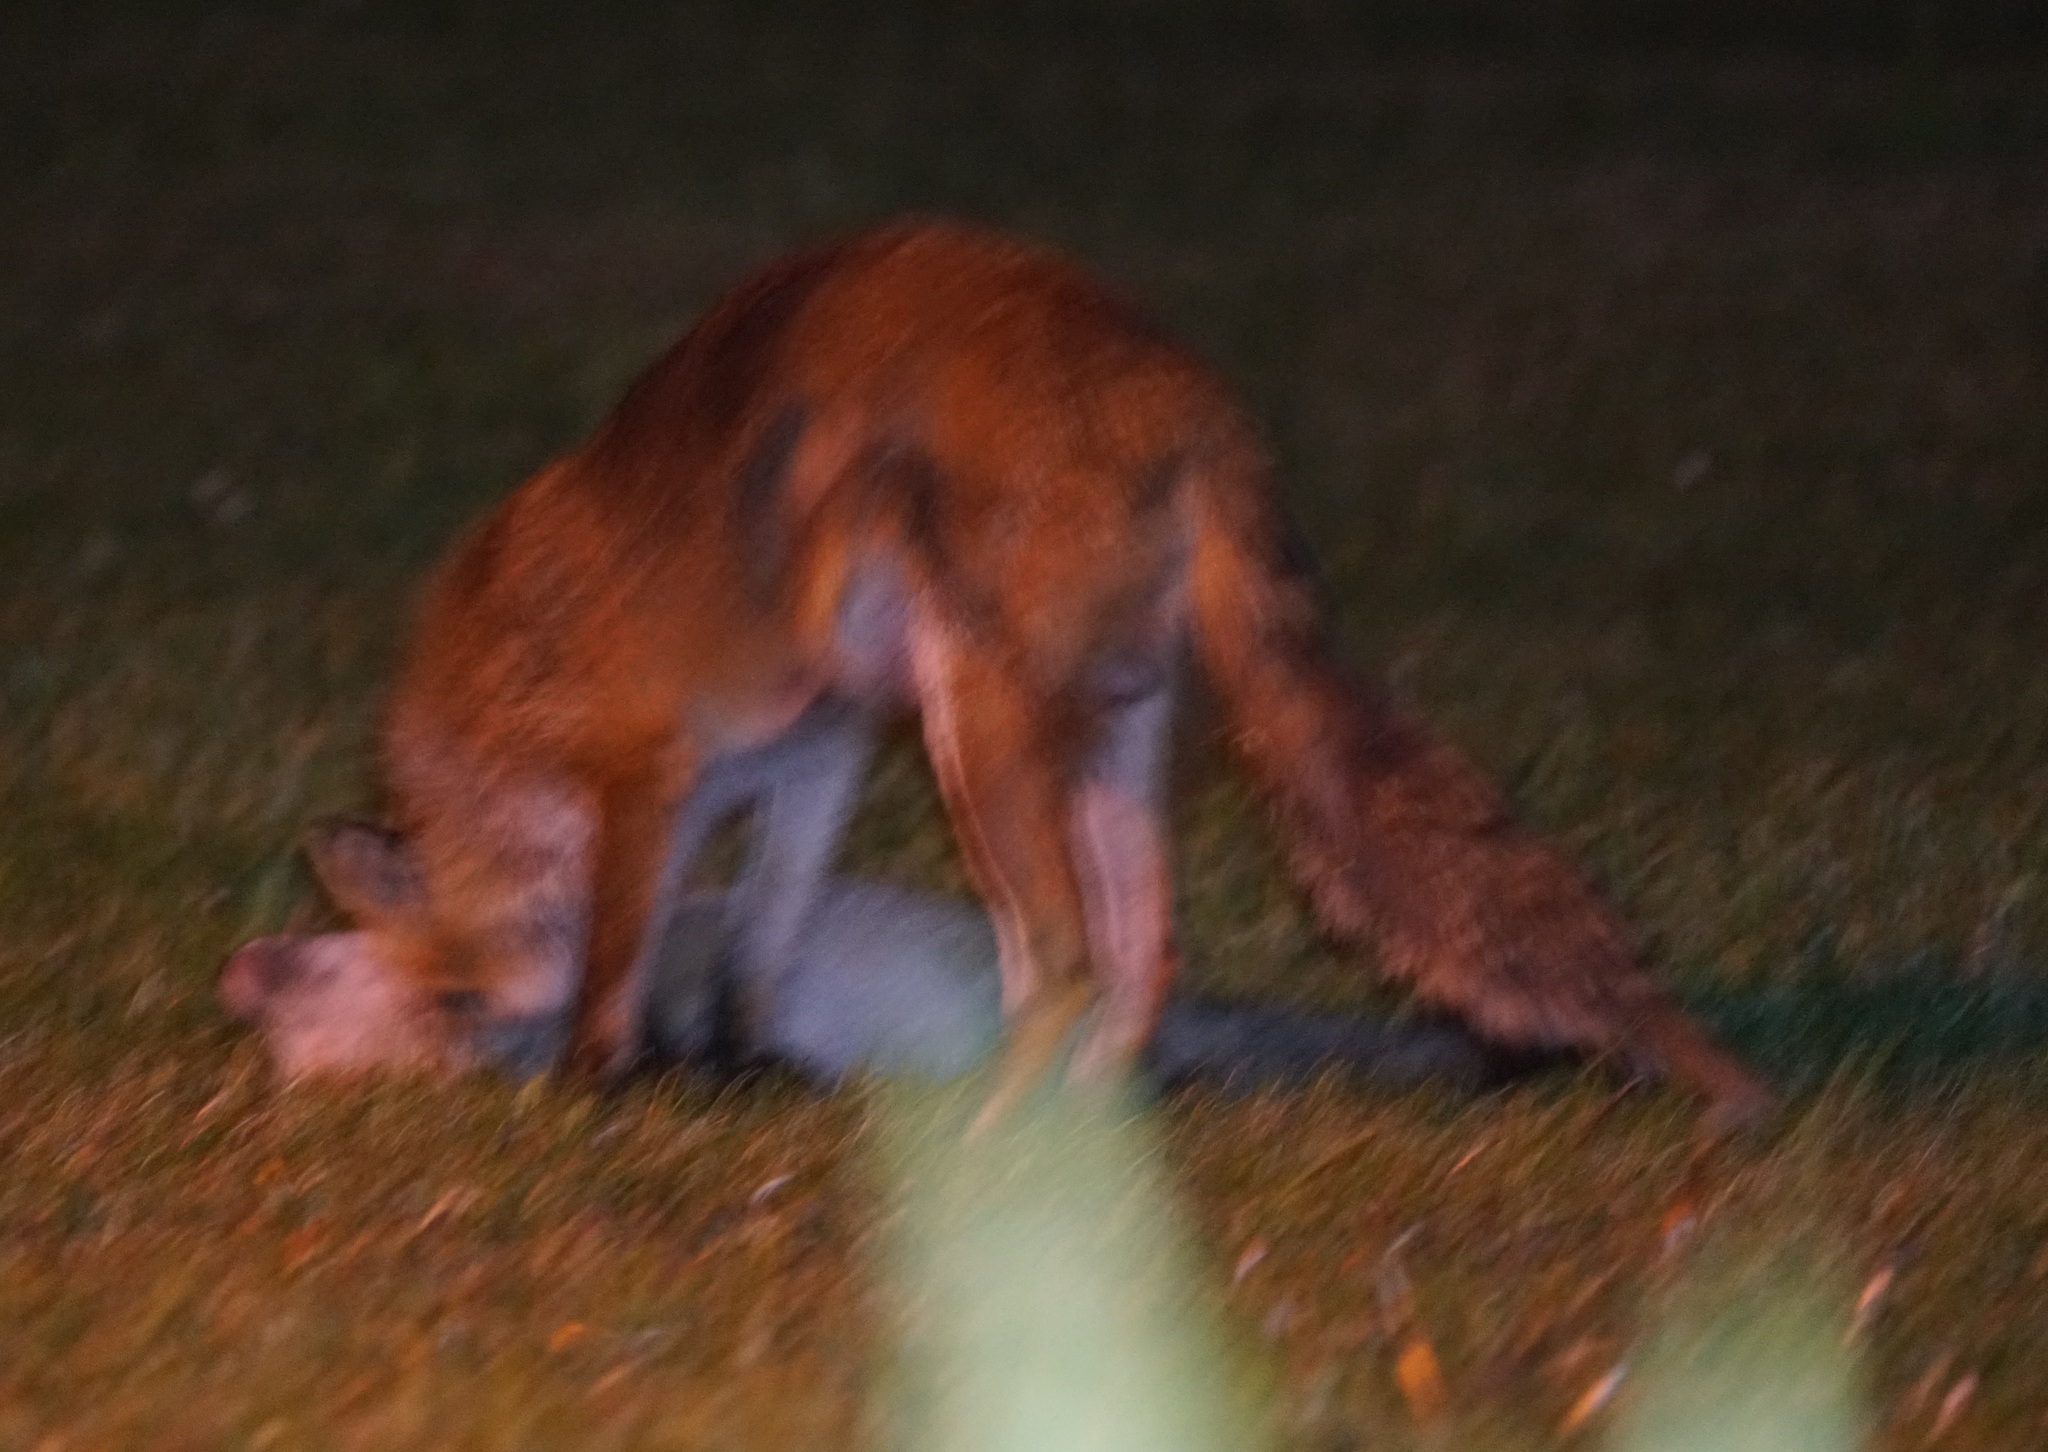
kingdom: Animalia
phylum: Chordata
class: Mammalia
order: Carnivora
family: Canidae
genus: Vulpes
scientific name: Vulpes vulpes
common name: Red fox
